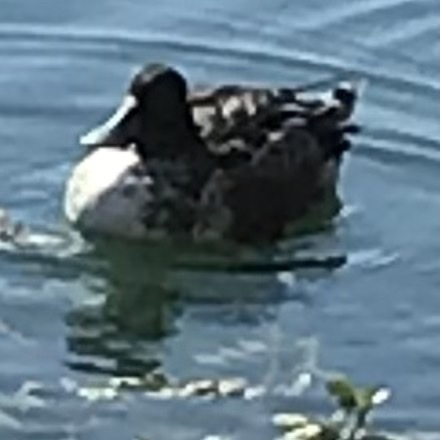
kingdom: Animalia
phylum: Chordata
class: Aves
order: Anseriformes
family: Anatidae
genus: Spatula
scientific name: Spatula clypeata
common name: Northern shoveler
